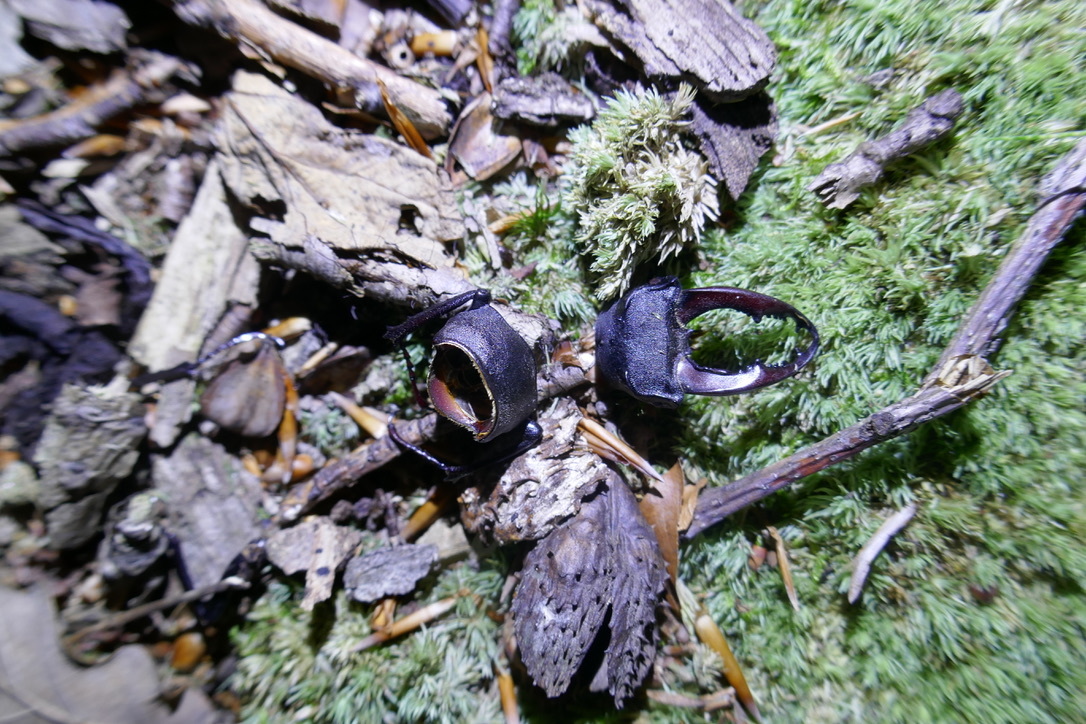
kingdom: Animalia
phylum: Arthropoda
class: Insecta
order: Coleoptera
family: Lucanidae
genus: Lucanus
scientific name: Lucanus cervus
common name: Stag beetle
